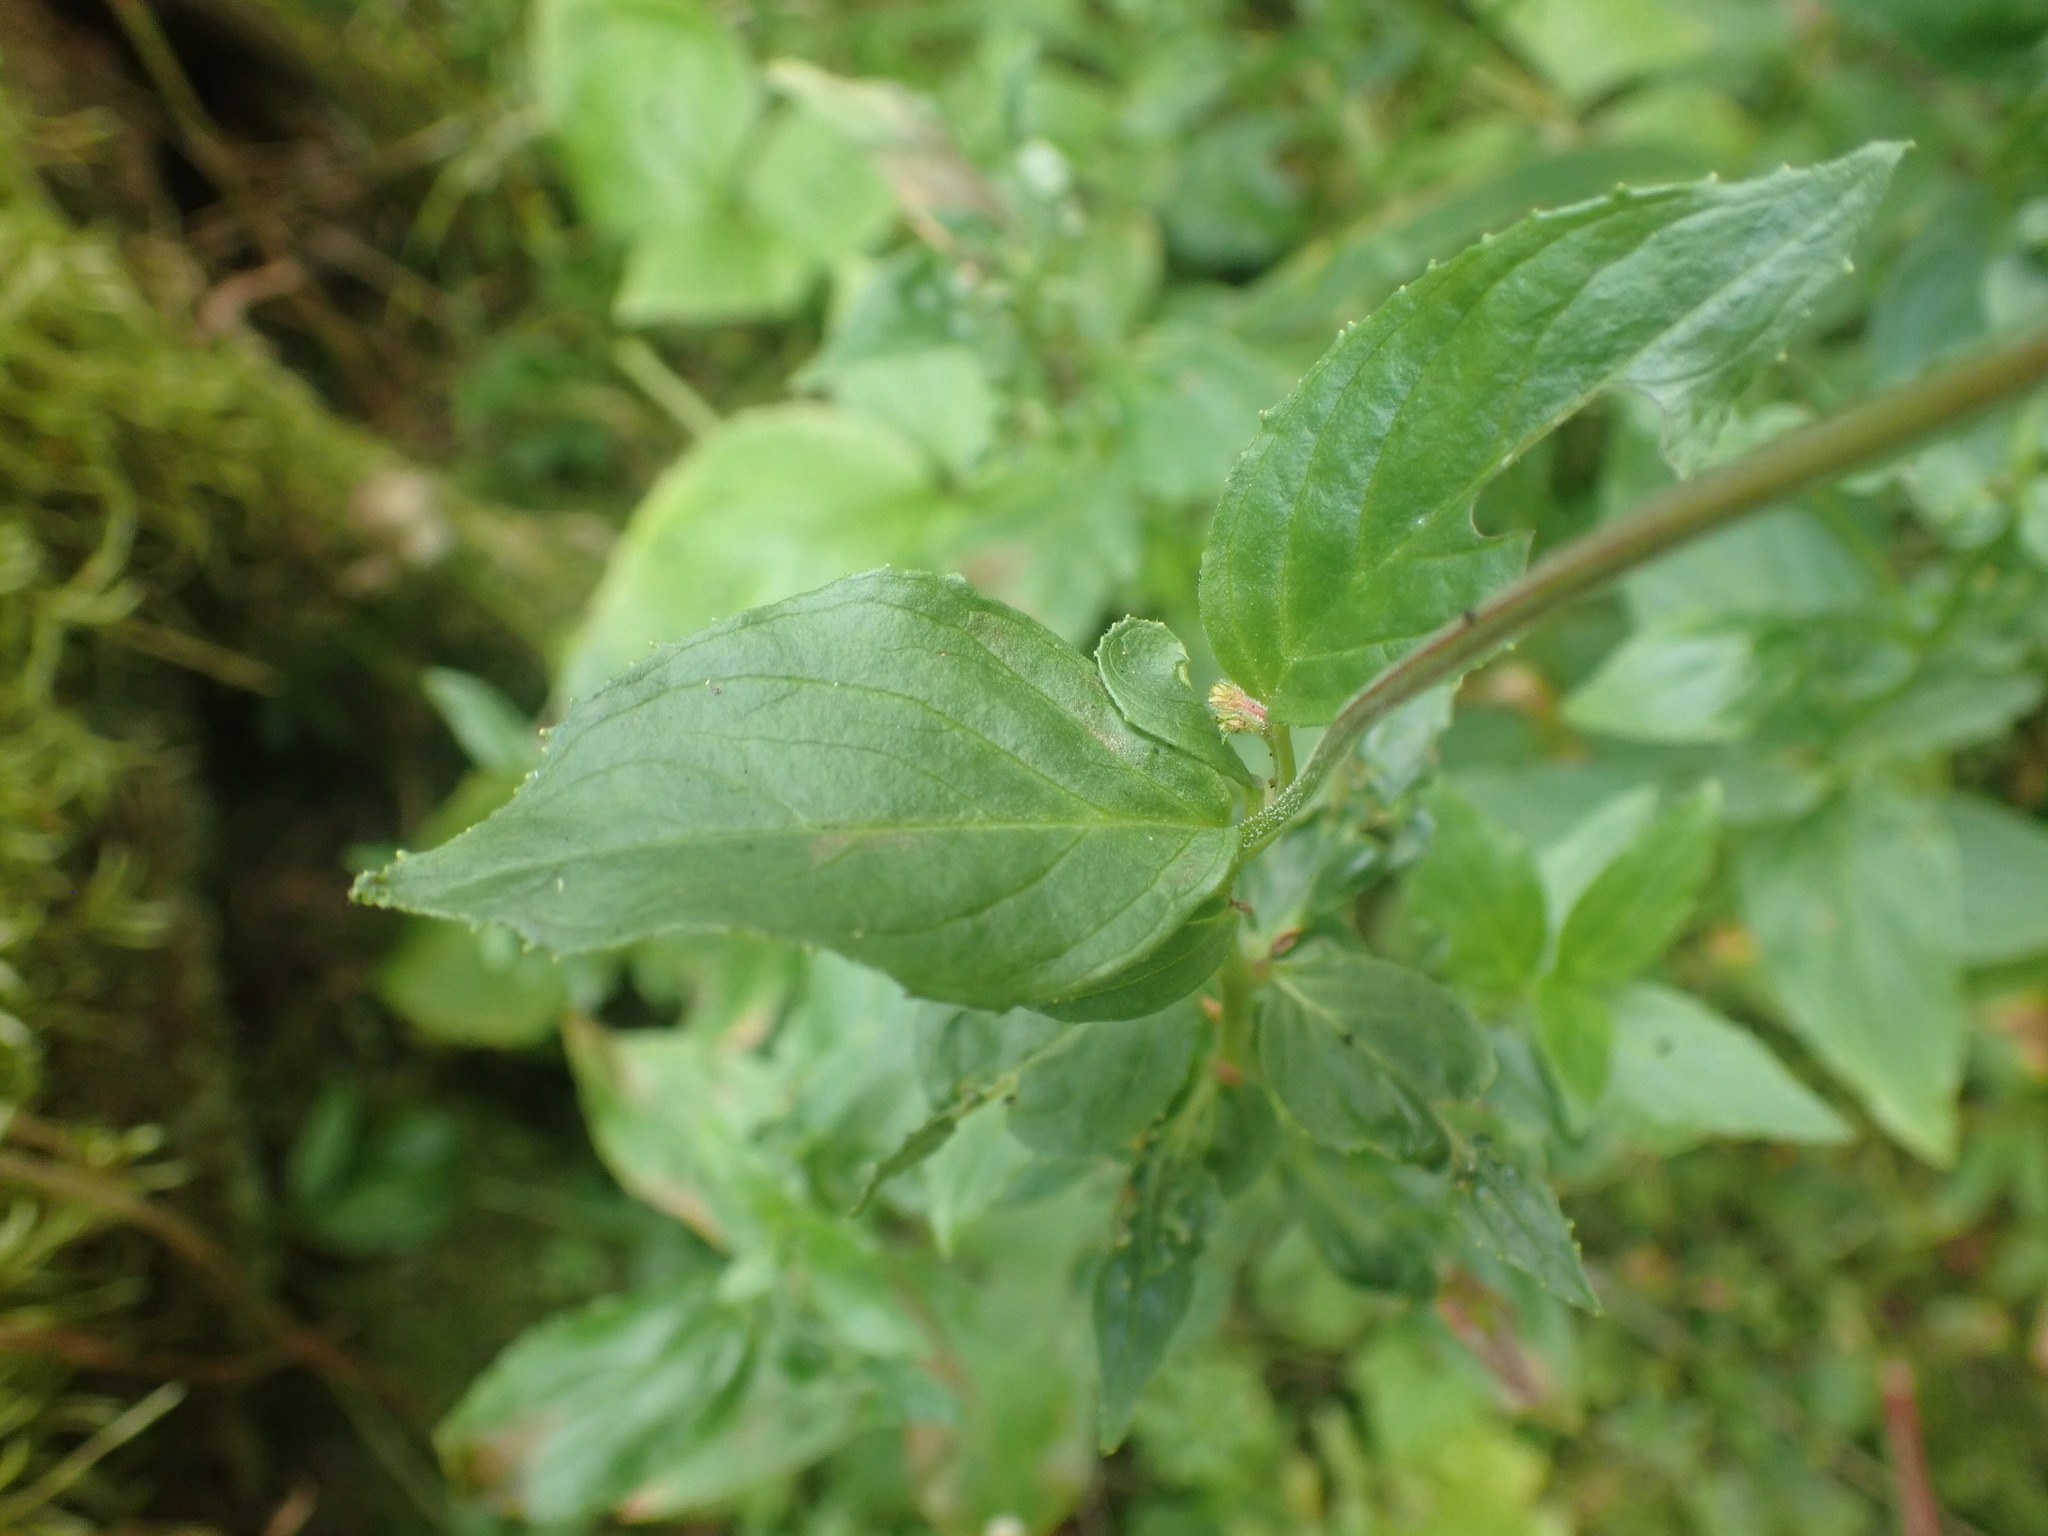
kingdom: Plantae
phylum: Tracheophyta
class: Magnoliopsida
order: Myrtales
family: Onagraceae
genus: Epilobium
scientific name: Epilobium luteum
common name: Yellow willowherb
